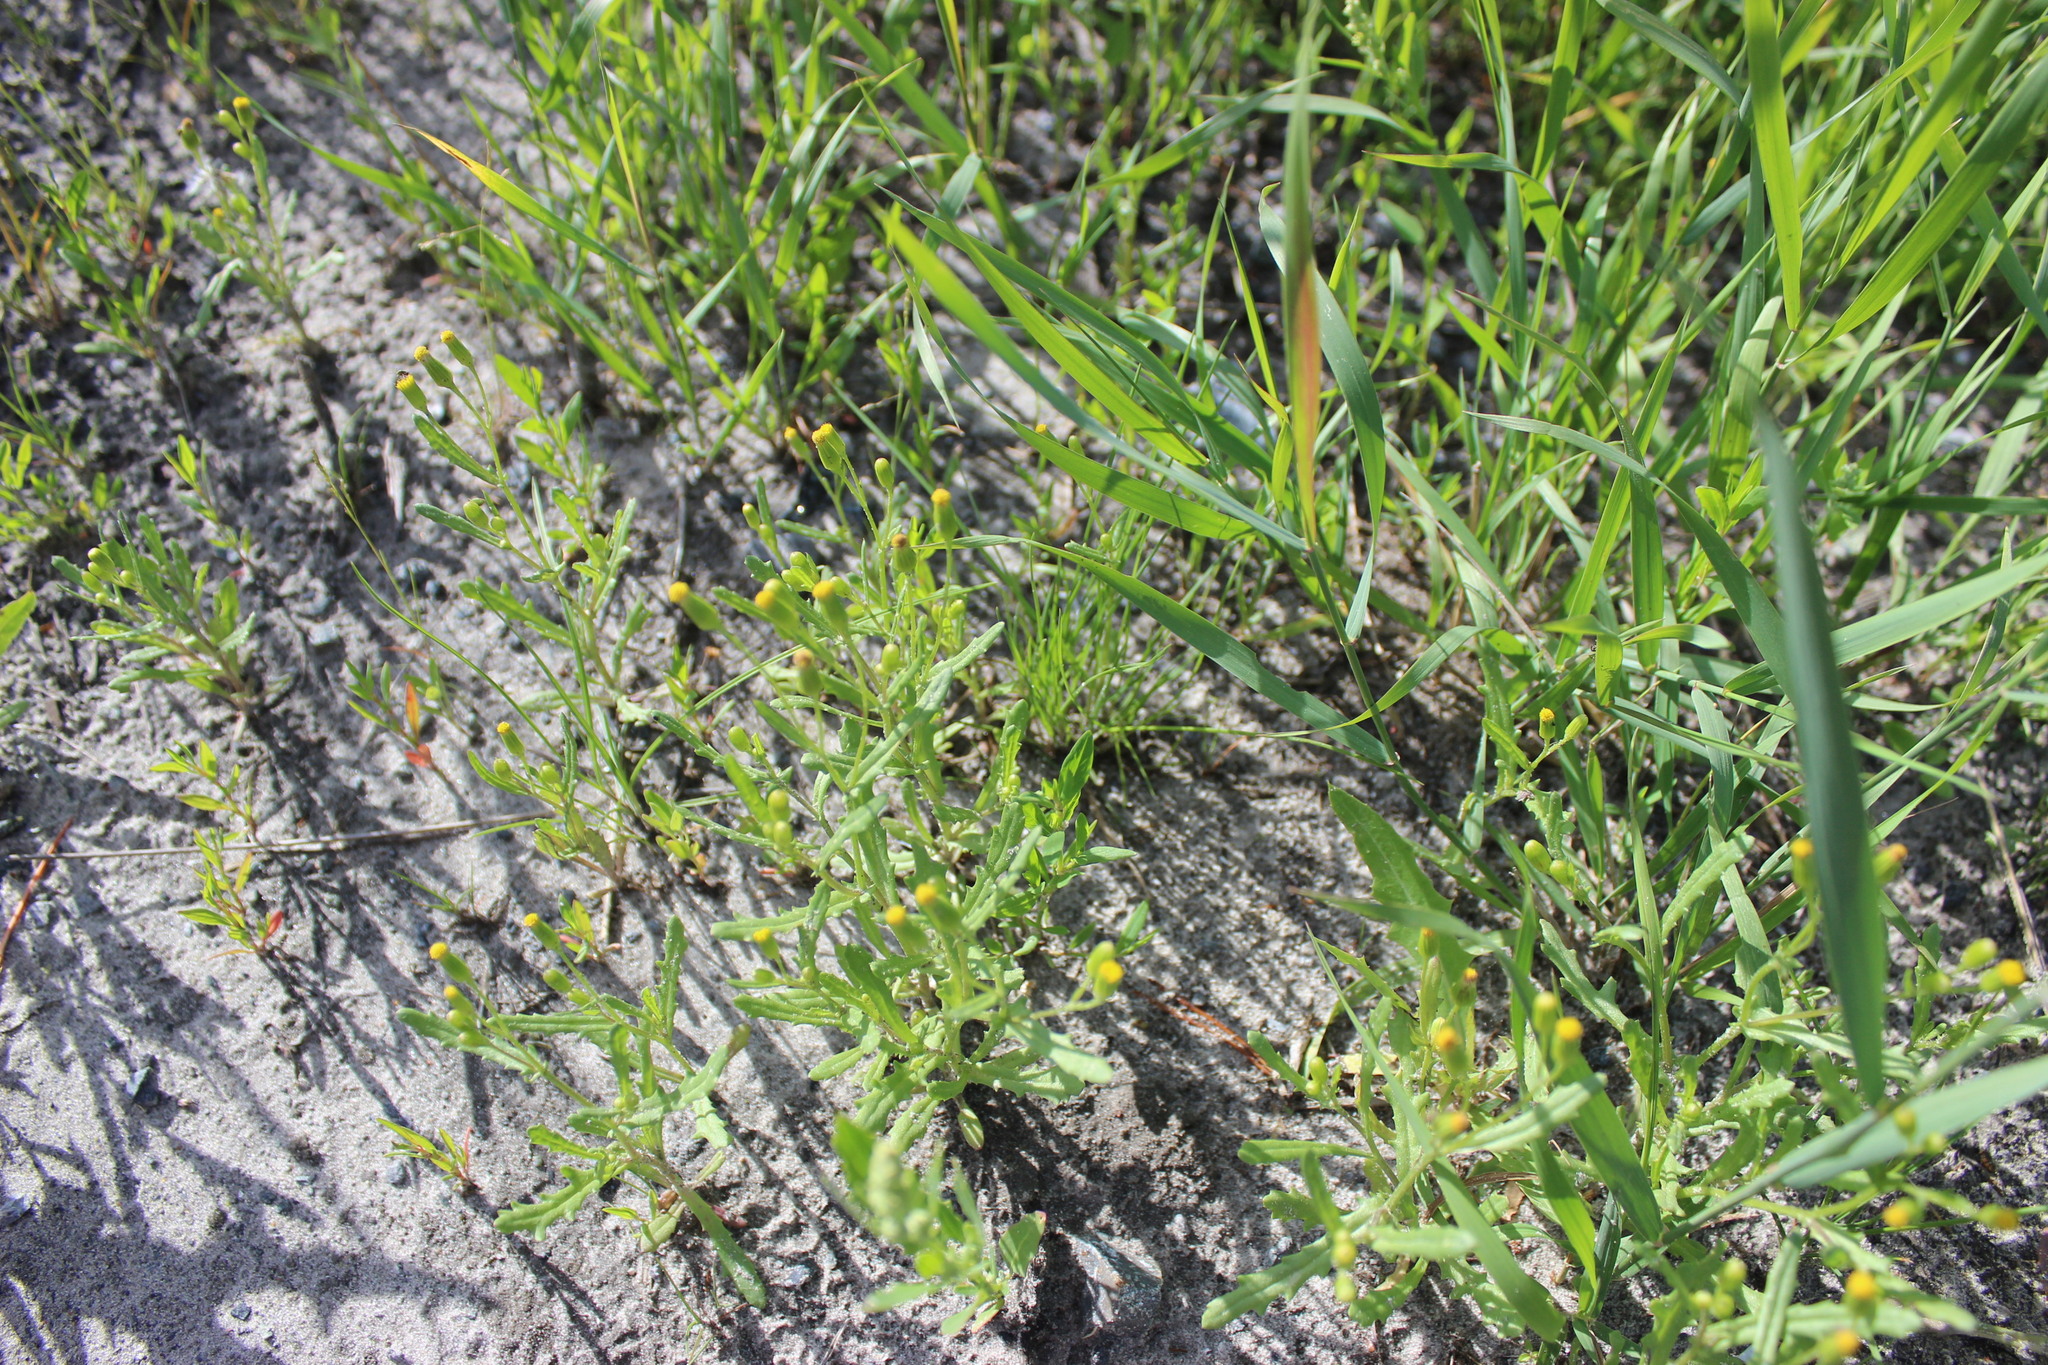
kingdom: Plantae
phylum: Tracheophyta
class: Magnoliopsida
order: Asterales
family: Asteraceae
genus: Senecio
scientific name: Senecio dubitabilis
